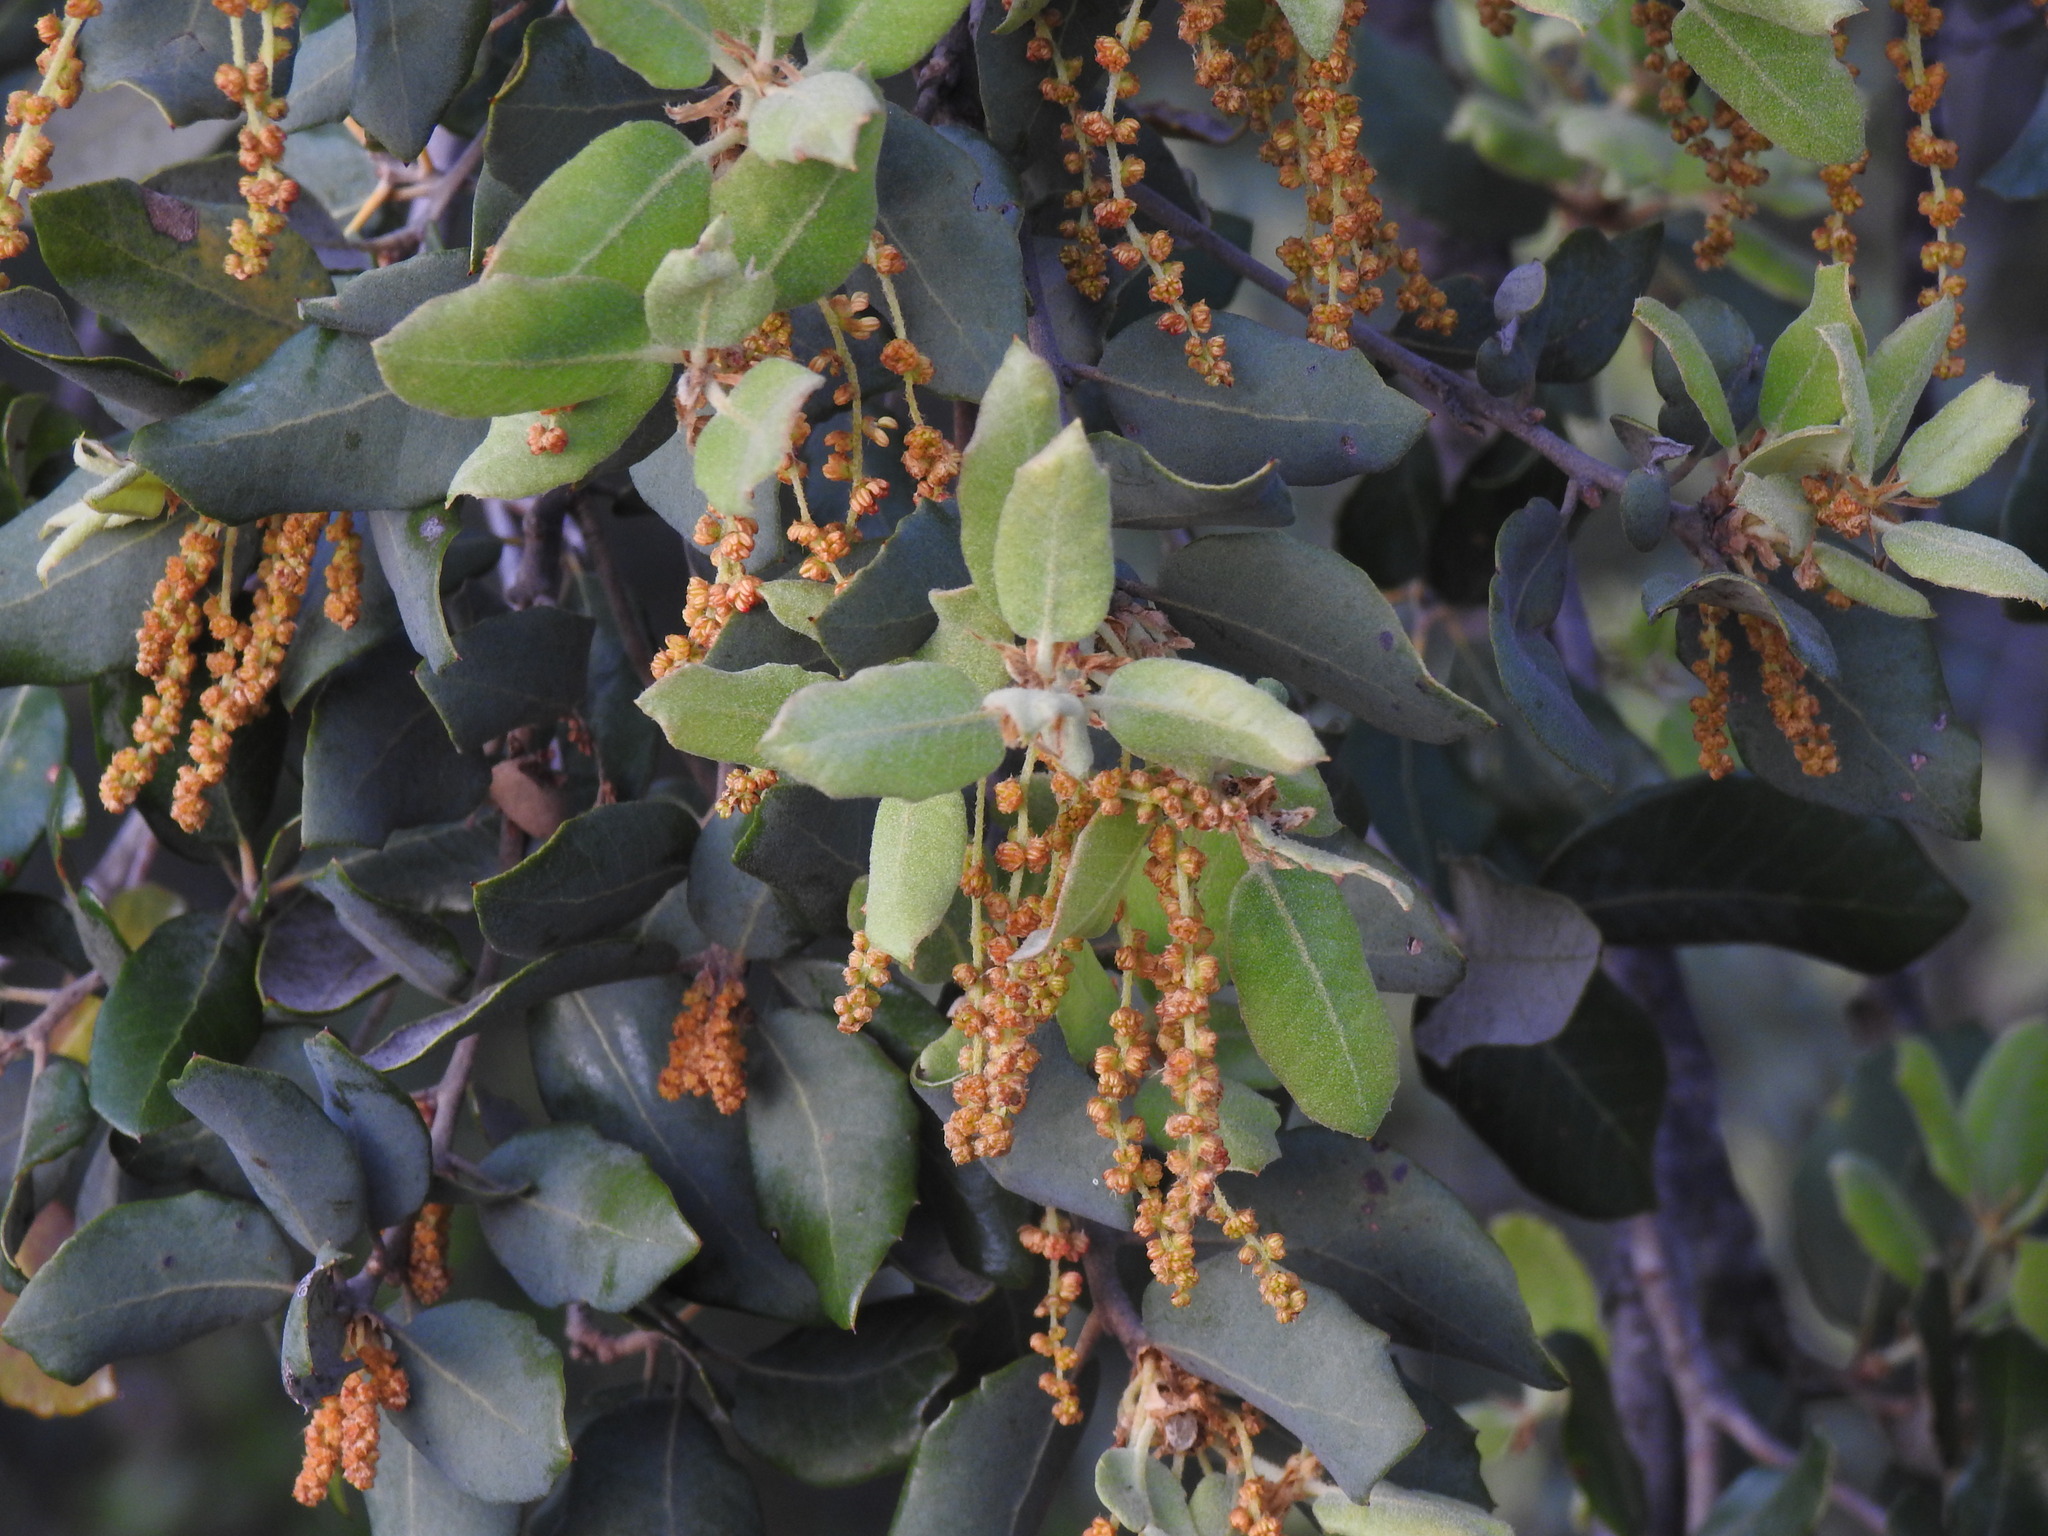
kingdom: Plantae
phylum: Tracheophyta
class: Magnoliopsida
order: Fagales
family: Fagaceae
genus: Quercus
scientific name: Quercus rotundifolia
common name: Holm oak
